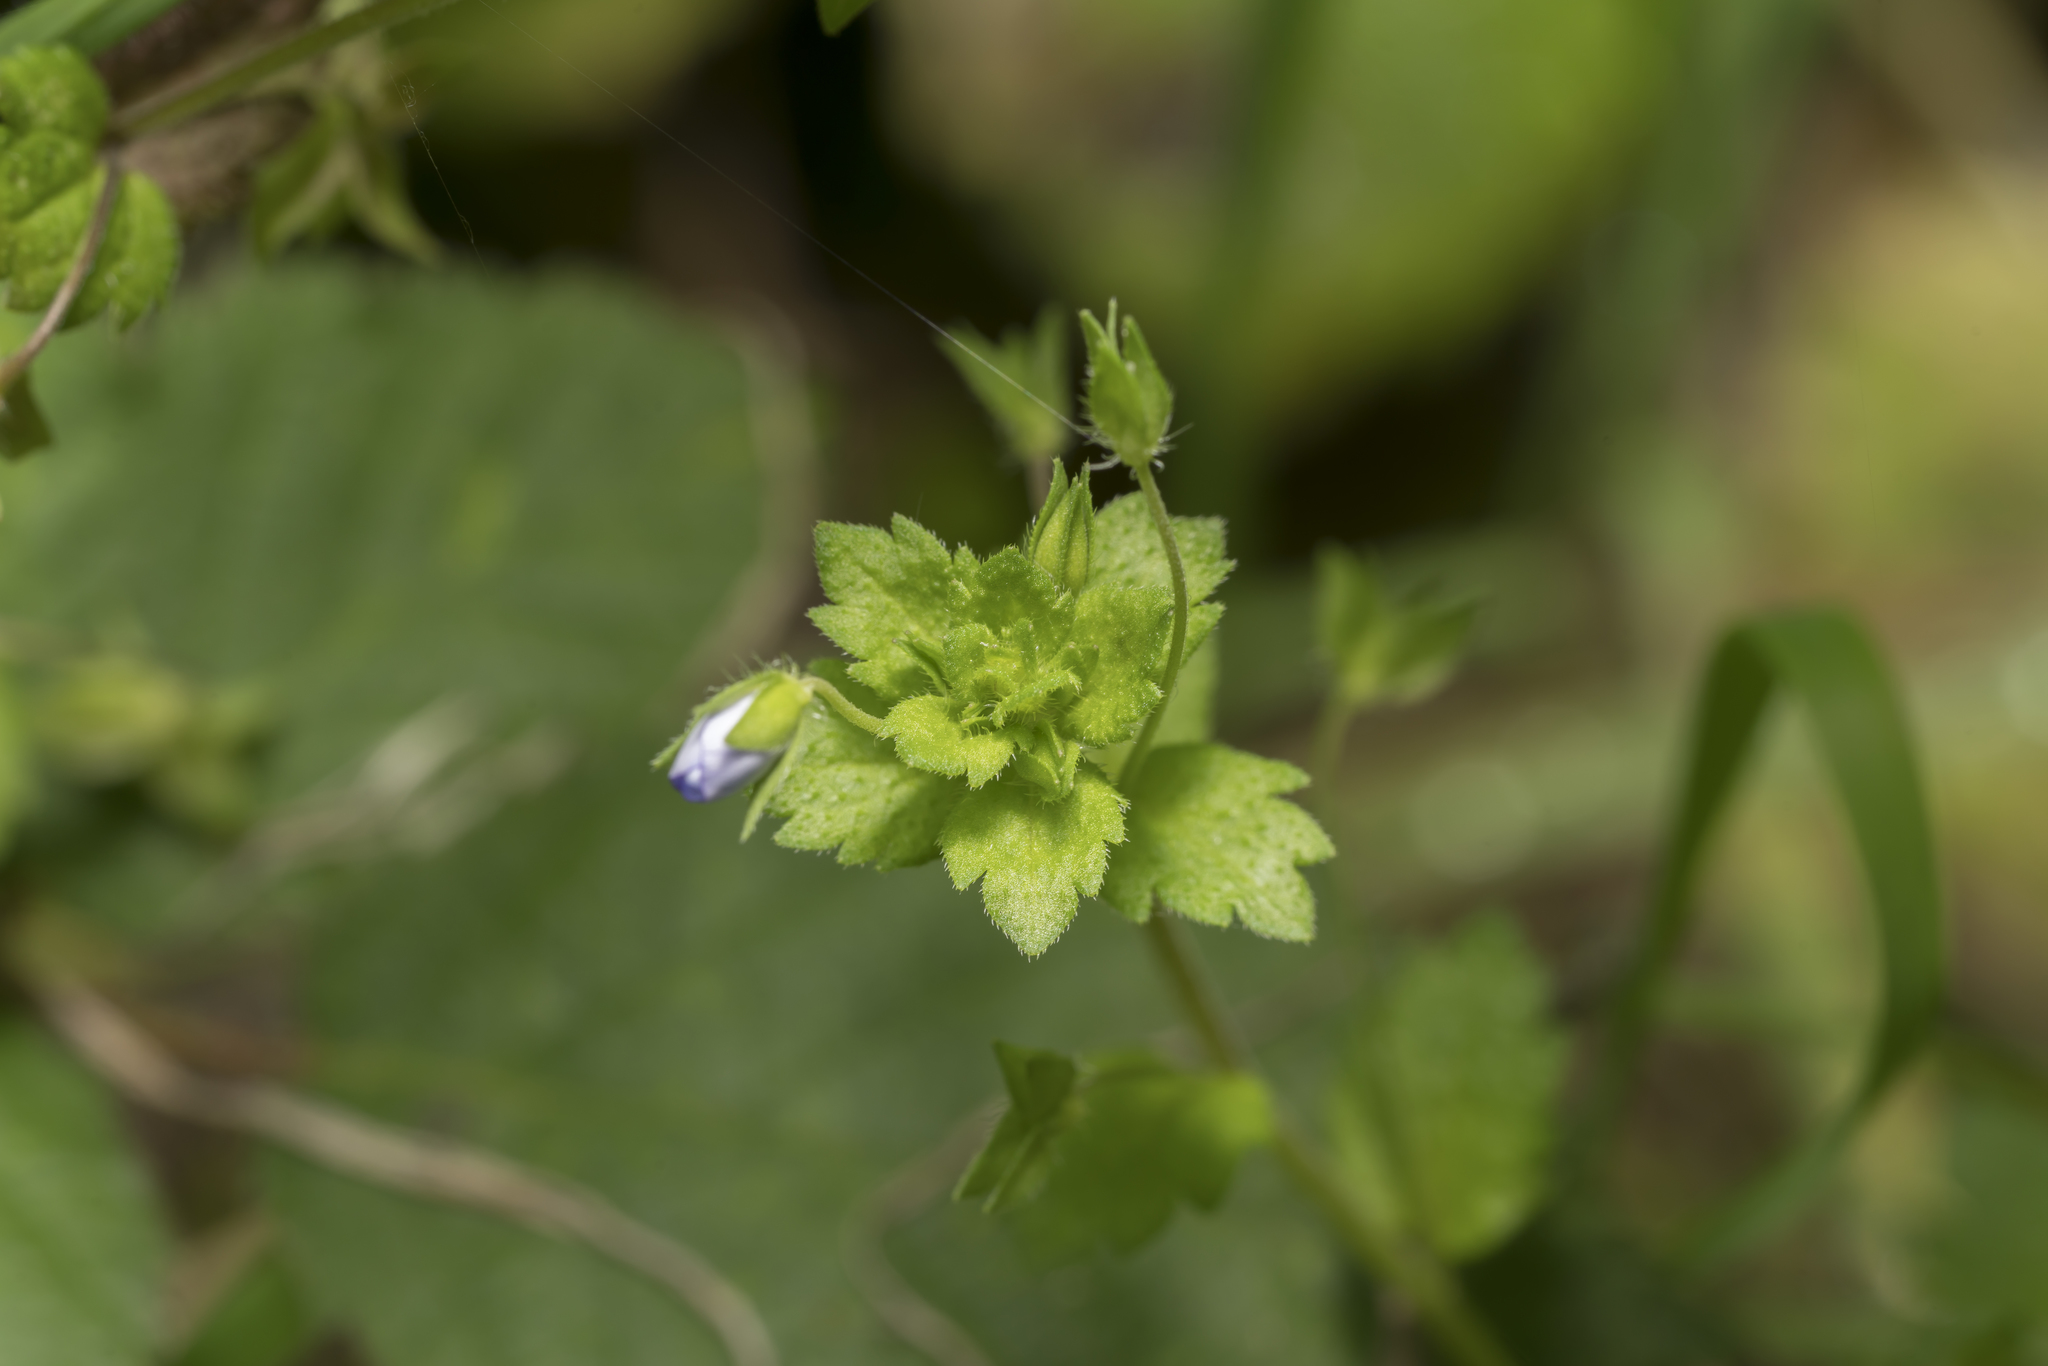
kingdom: Plantae
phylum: Tracheophyta
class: Magnoliopsida
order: Lamiales
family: Plantaginaceae
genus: Veronica
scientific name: Veronica persica
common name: Common field-speedwell
